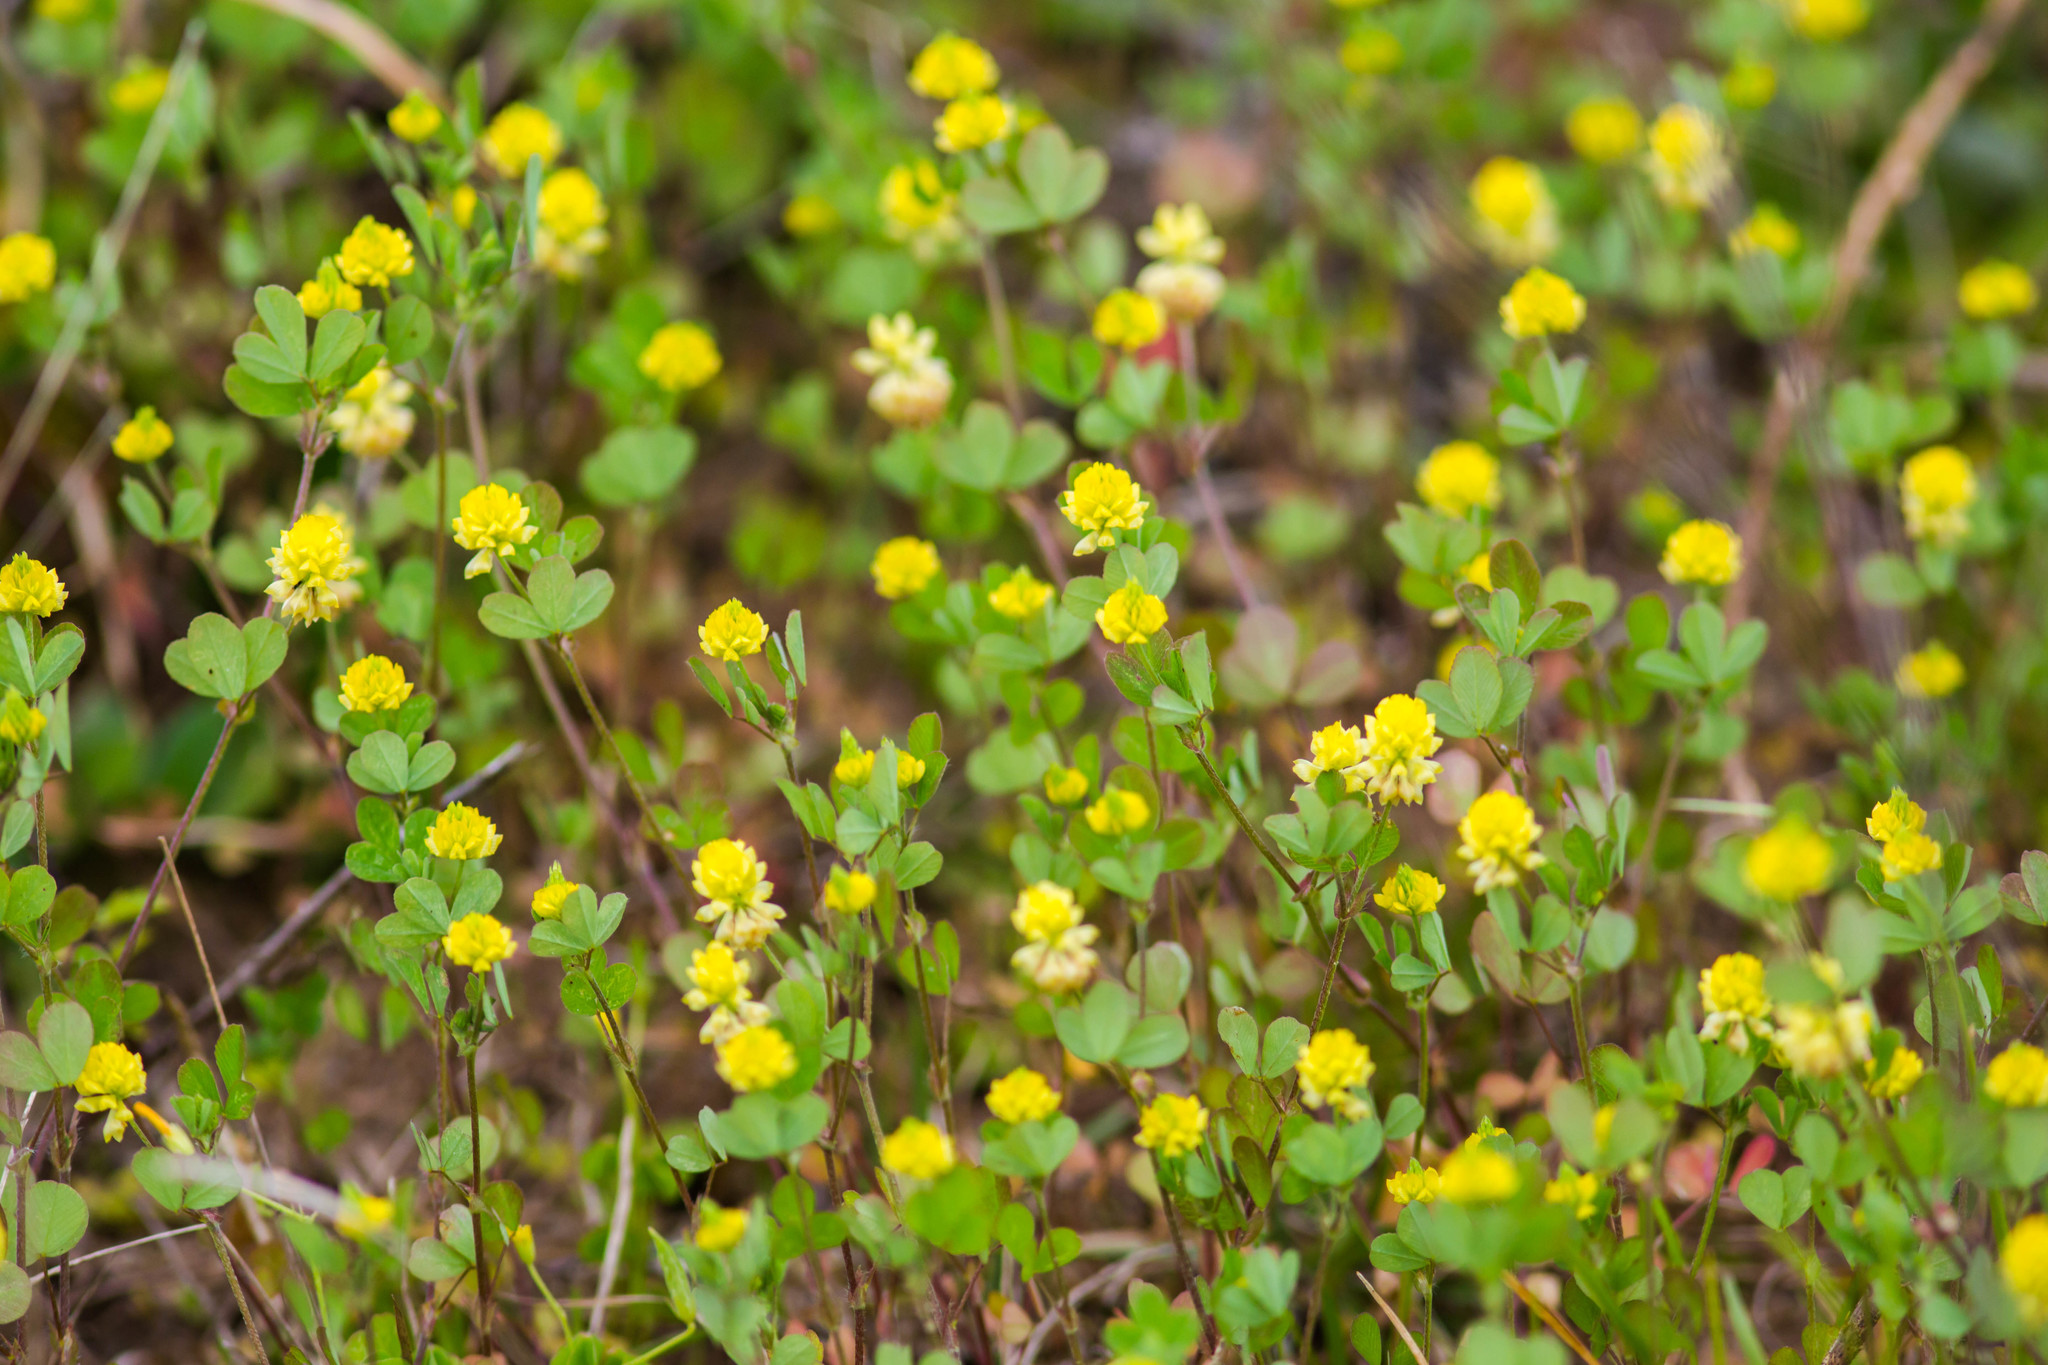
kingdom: Plantae
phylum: Tracheophyta
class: Magnoliopsida
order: Fabales
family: Fabaceae
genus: Trifolium
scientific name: Trifolium campestre
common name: Field clover
